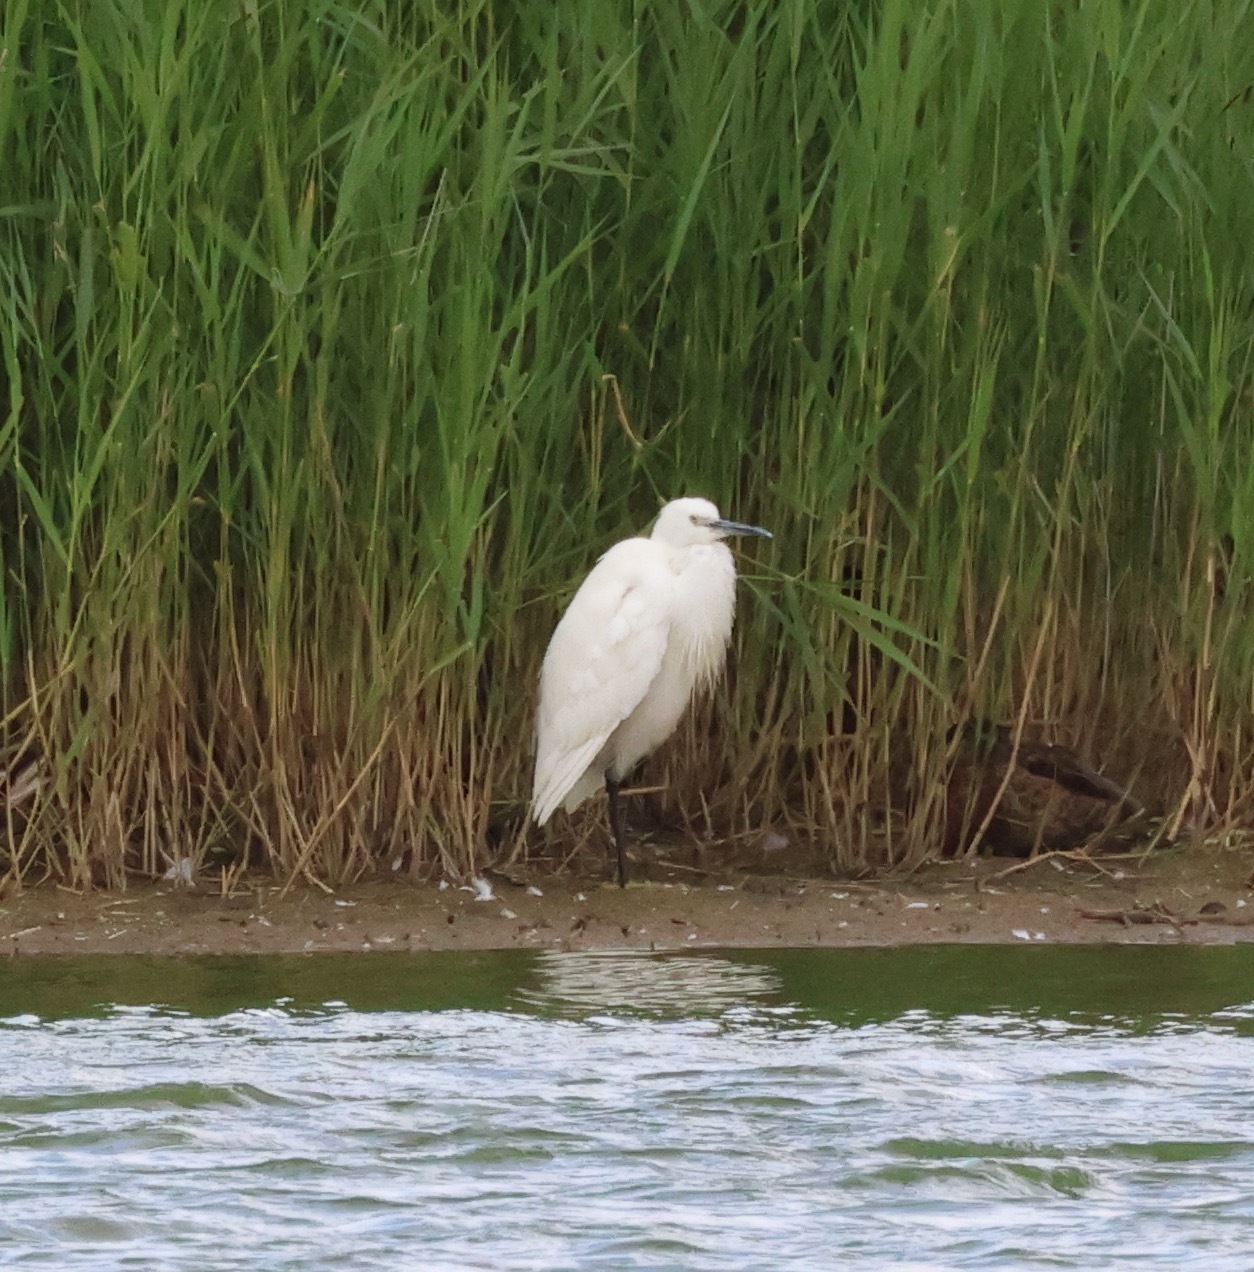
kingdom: Animalia
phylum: Chordata
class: Aves
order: Pelecaniformes
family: Ardeidae
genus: Egretta
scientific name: Egretta garzetta
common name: Little egret
